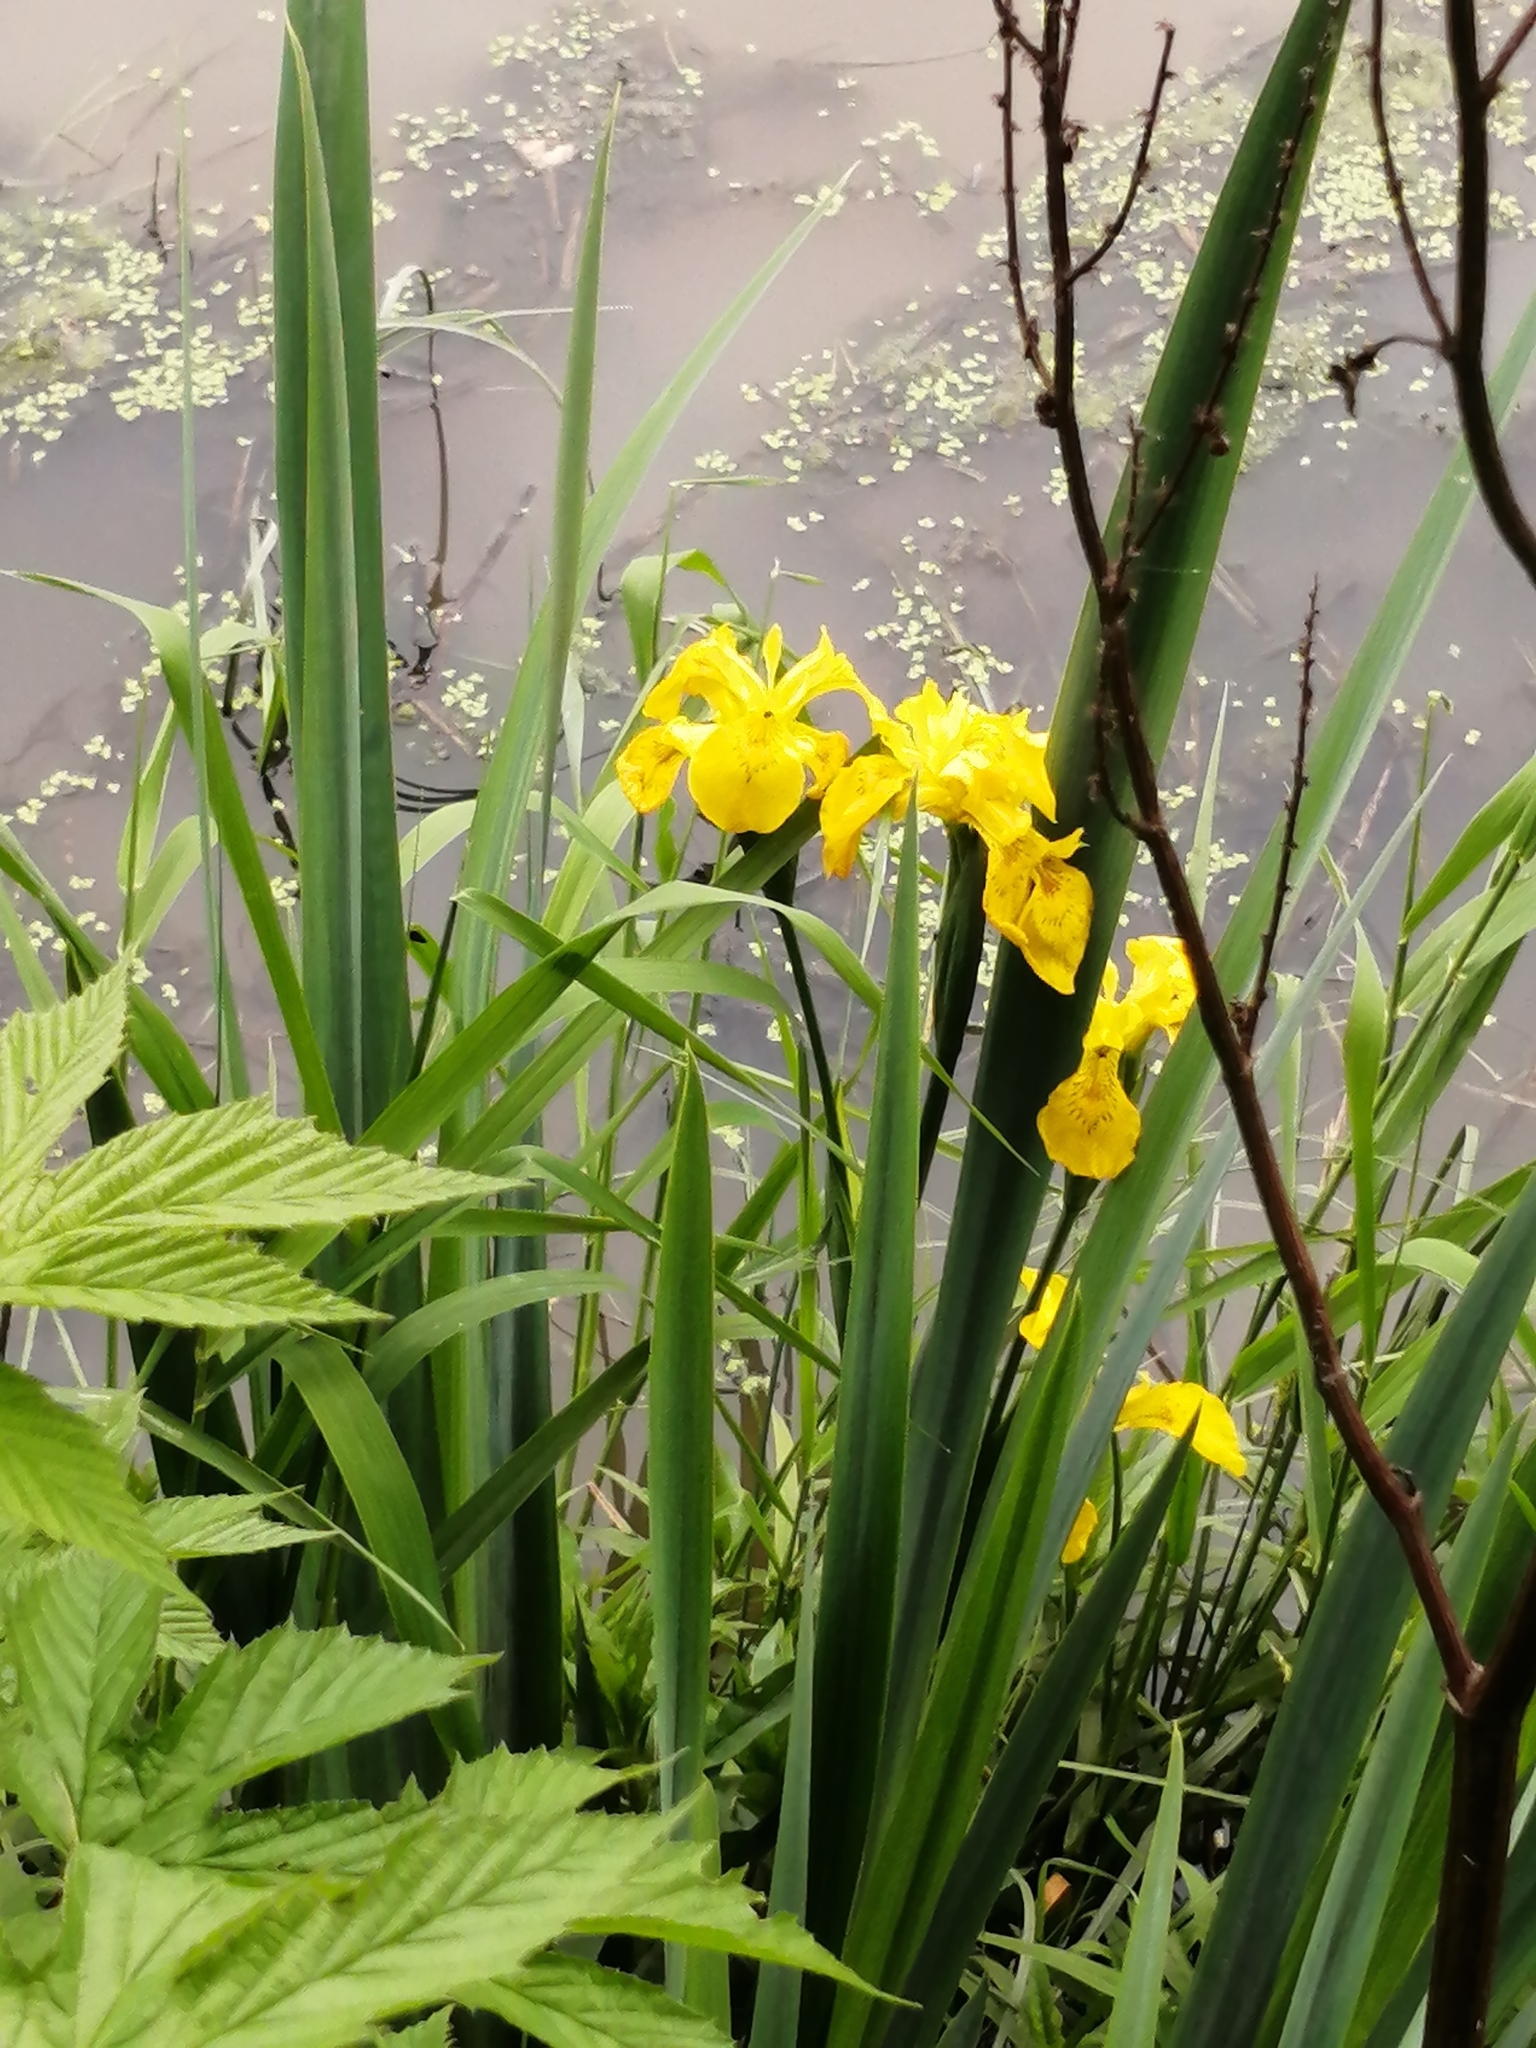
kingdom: Plantae
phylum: Tracheophyta
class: Liliopsida
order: Asparagales
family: Iridaceae
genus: Iris
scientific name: Iris pseudacorus
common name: Yellow flag
